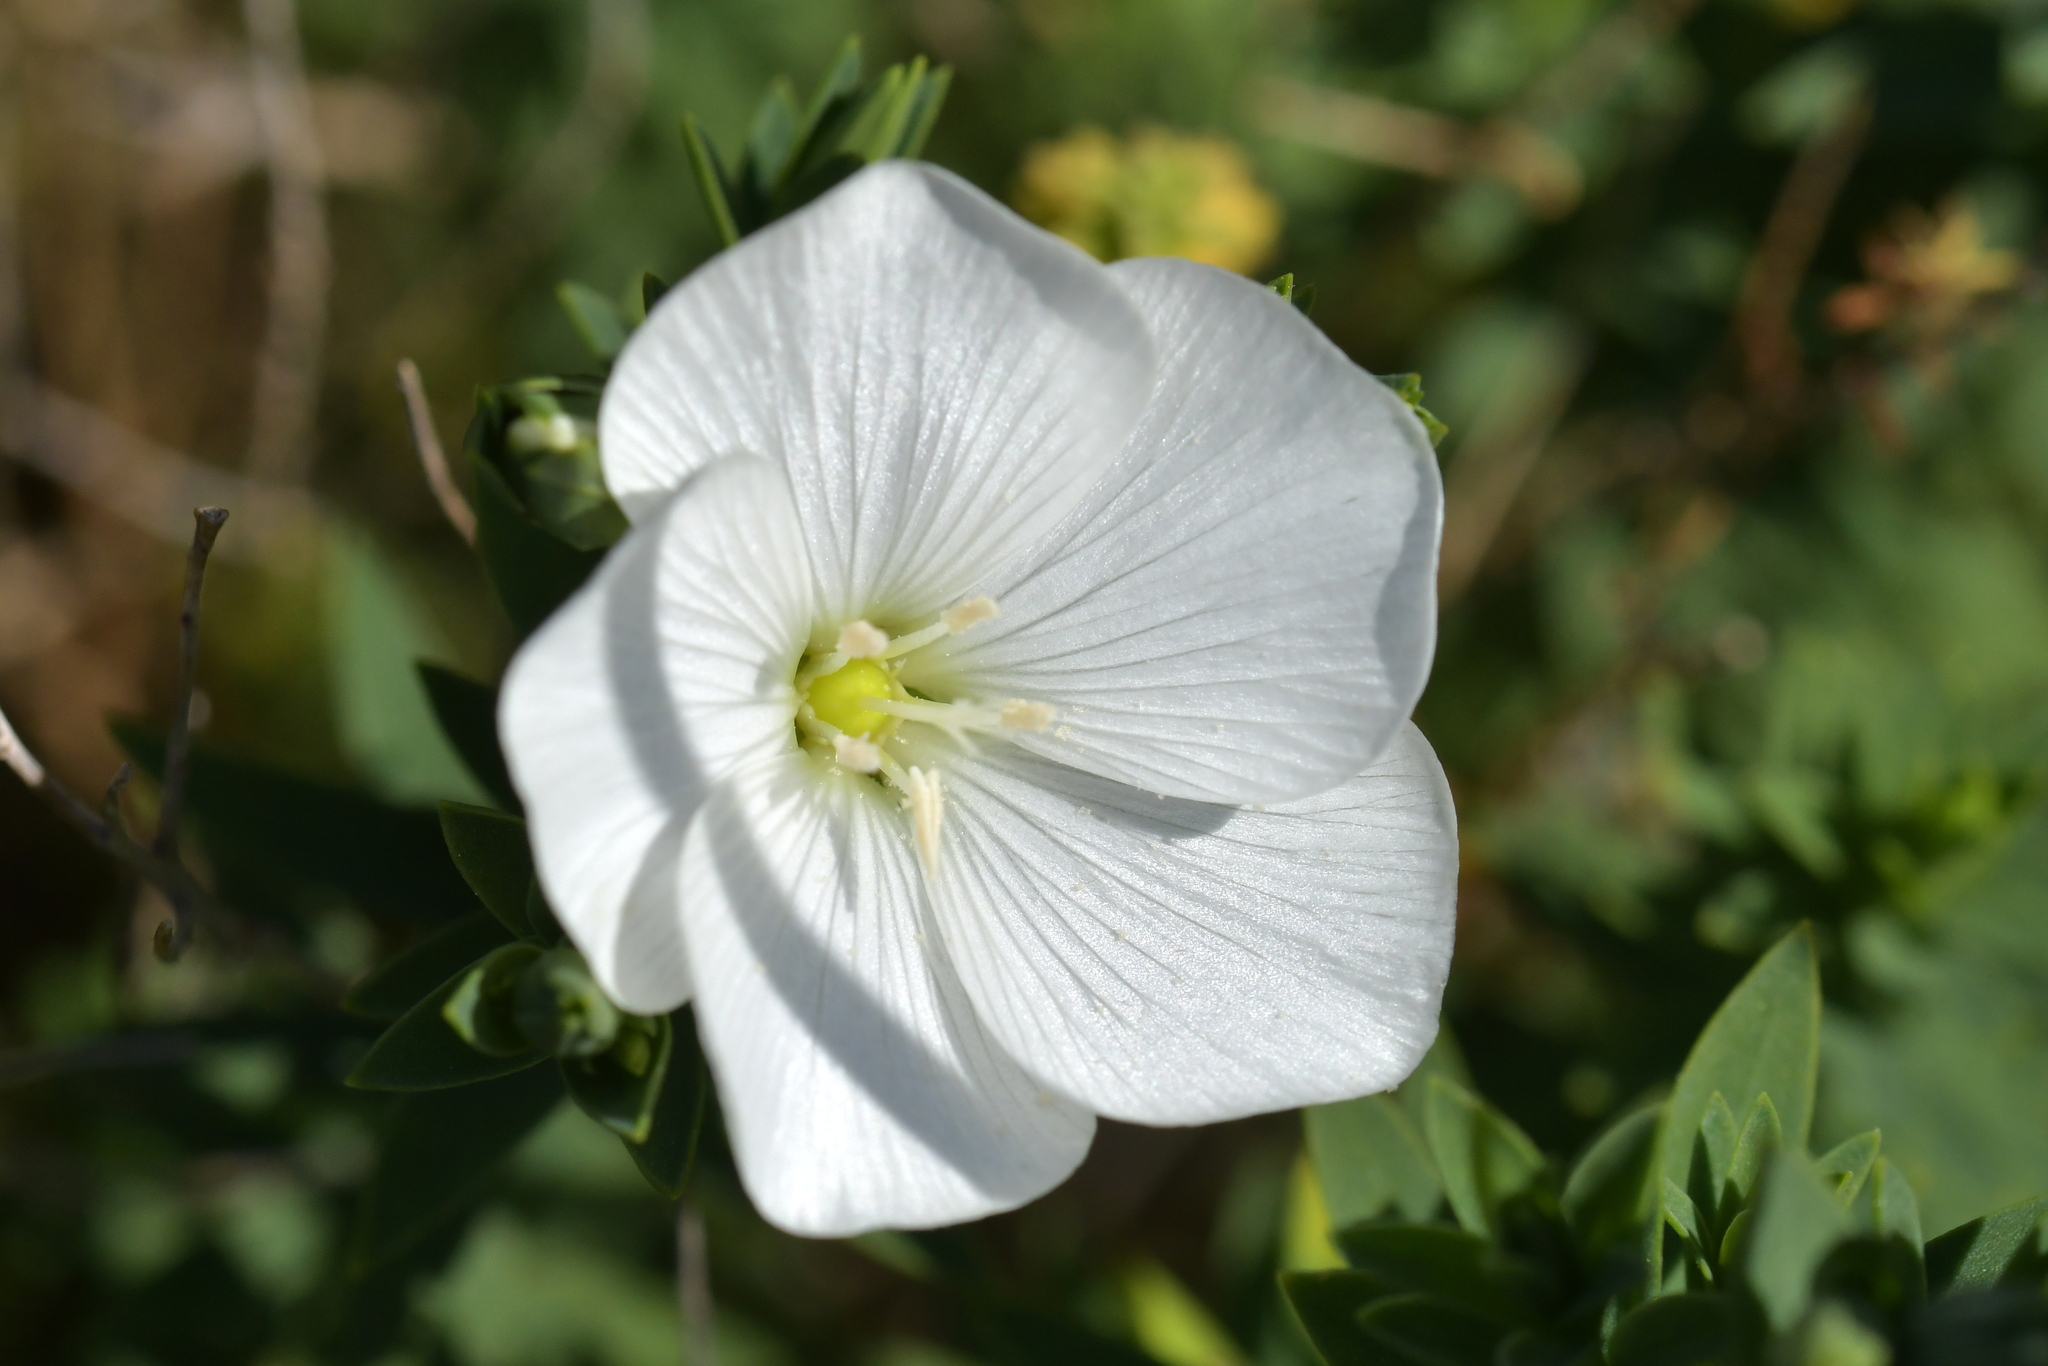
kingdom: Plantae
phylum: Tracheophyta
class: Magnoliopsida
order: Malpighiales
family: Linaceae
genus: Linum
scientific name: Linum monogynum
